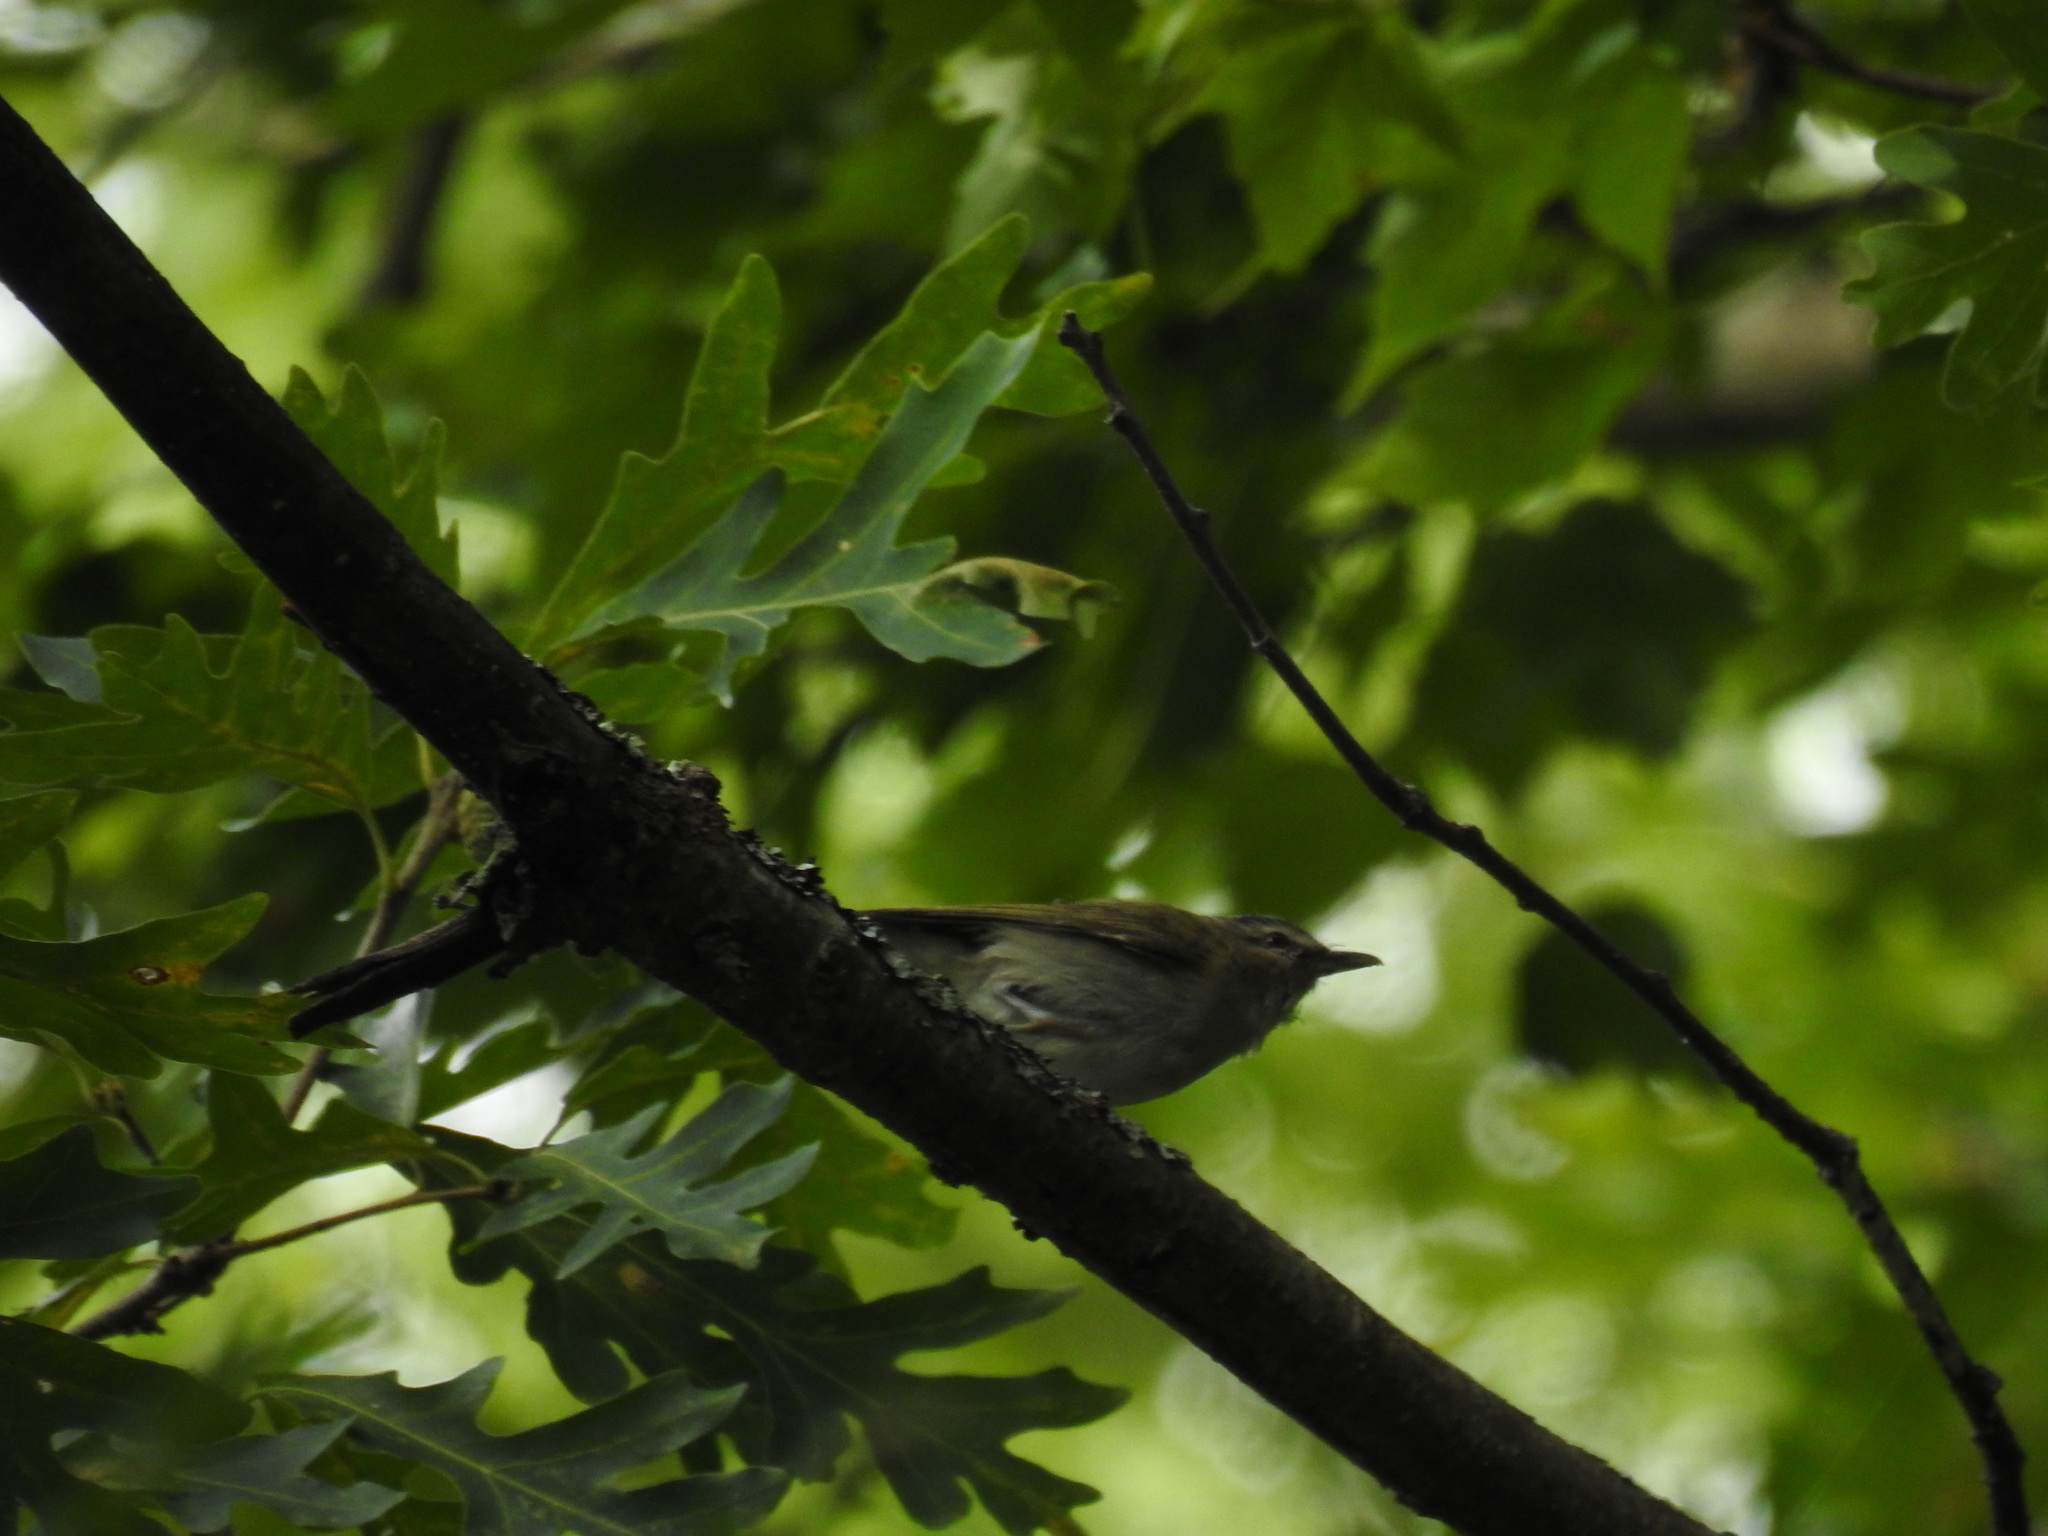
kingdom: Animalia
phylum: Chordata
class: Aves
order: Passeriformes
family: Vireonidae
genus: Vireo
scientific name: Vireo olivaceus
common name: Red-eyed vireo
